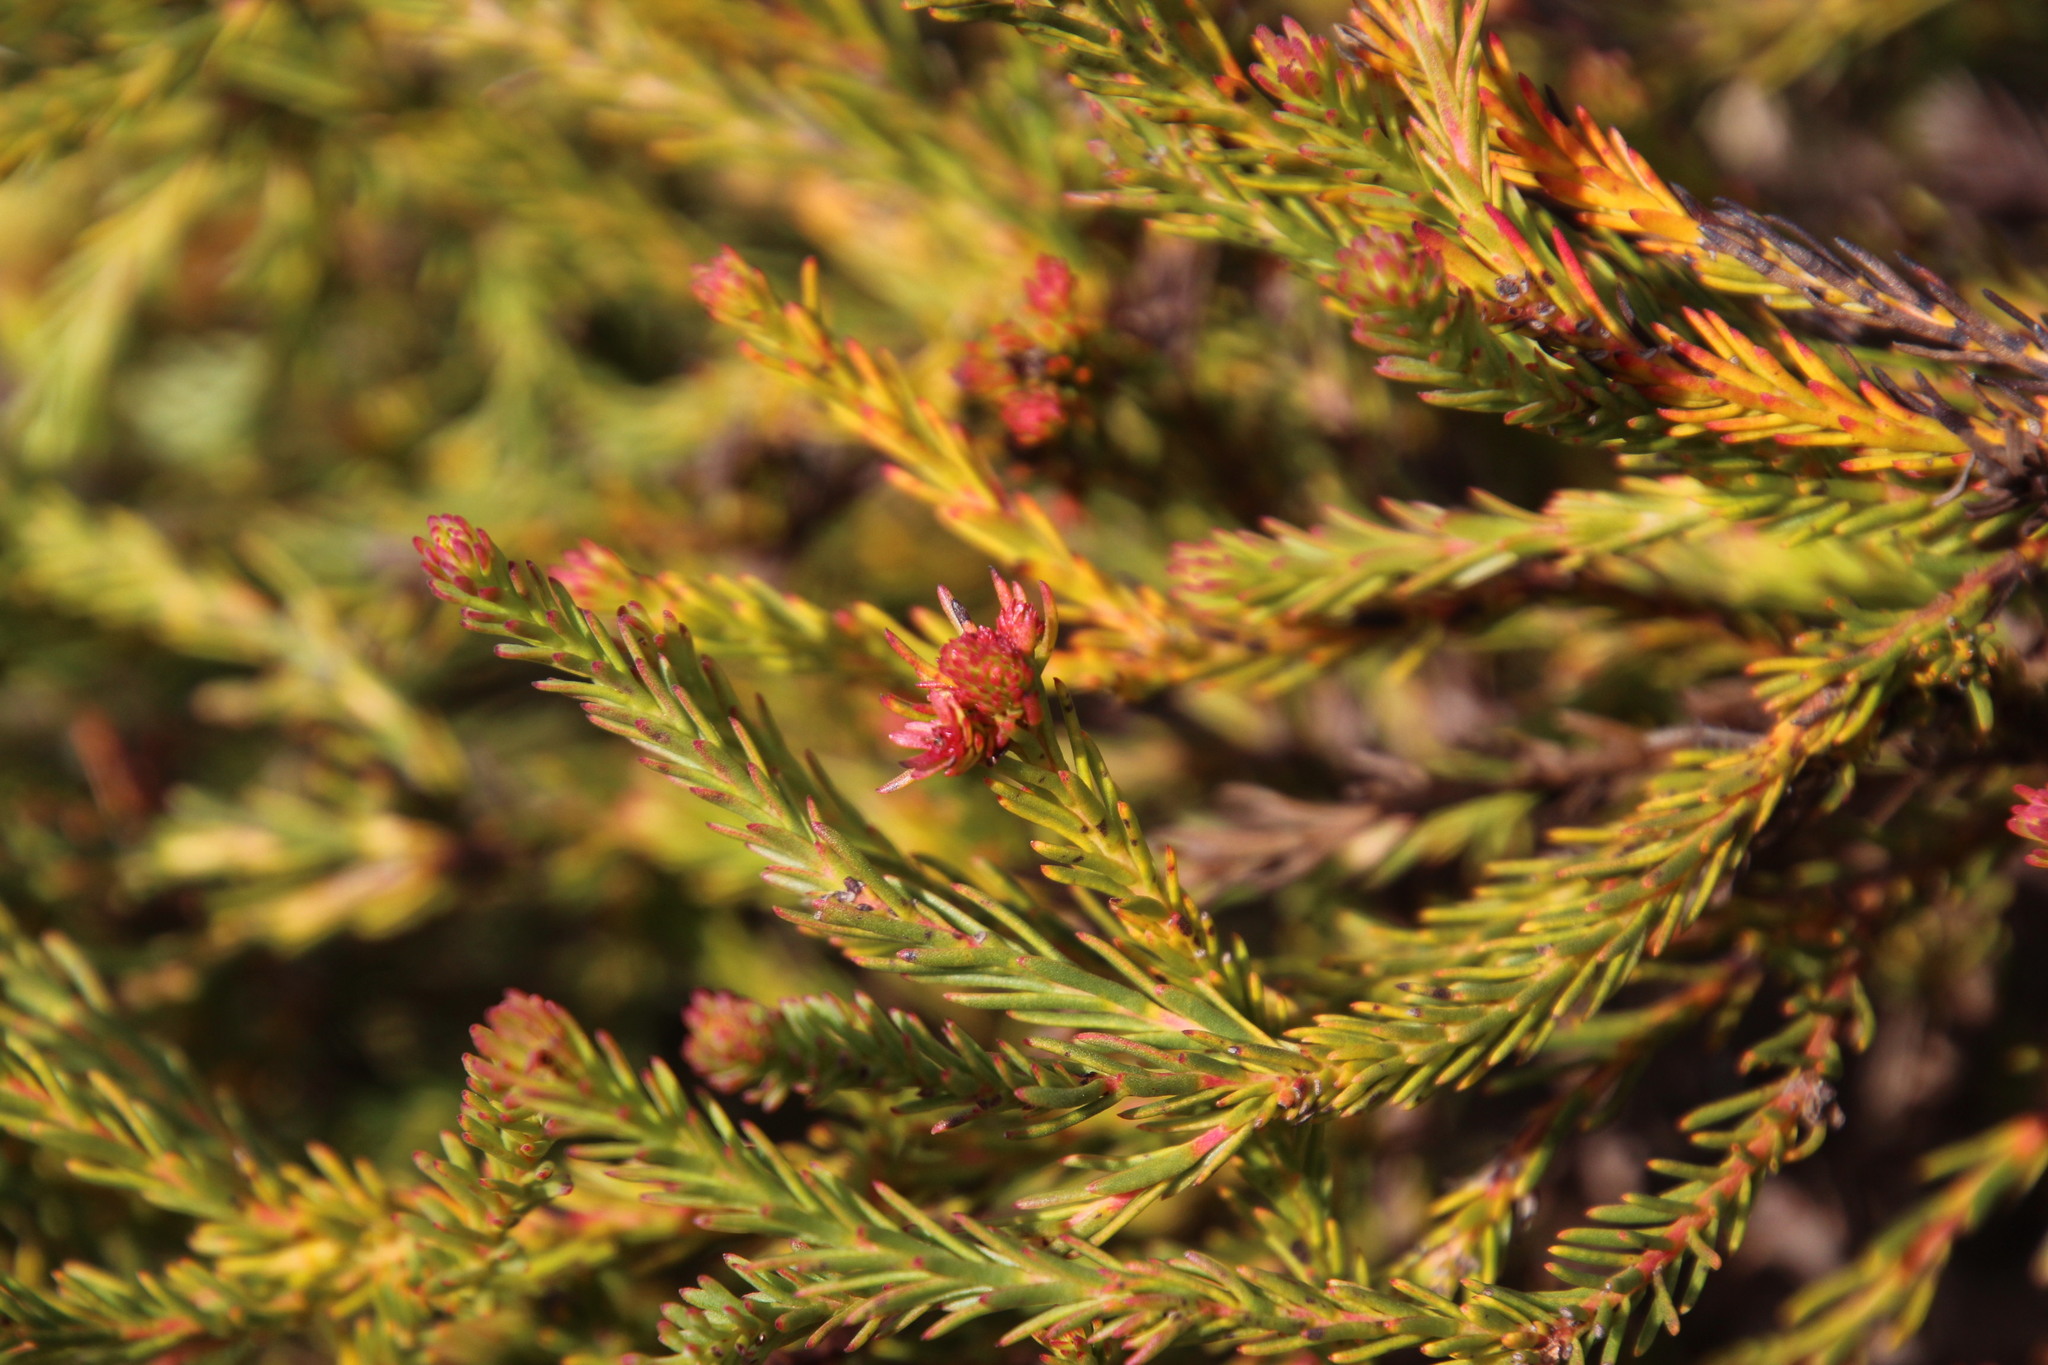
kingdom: Plantae
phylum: Tracheophyta
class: Magnoliopsida
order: Proteales
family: Proteaceae
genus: Protea
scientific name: Protea subulifolia
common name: Awl-leaf sugarbush
